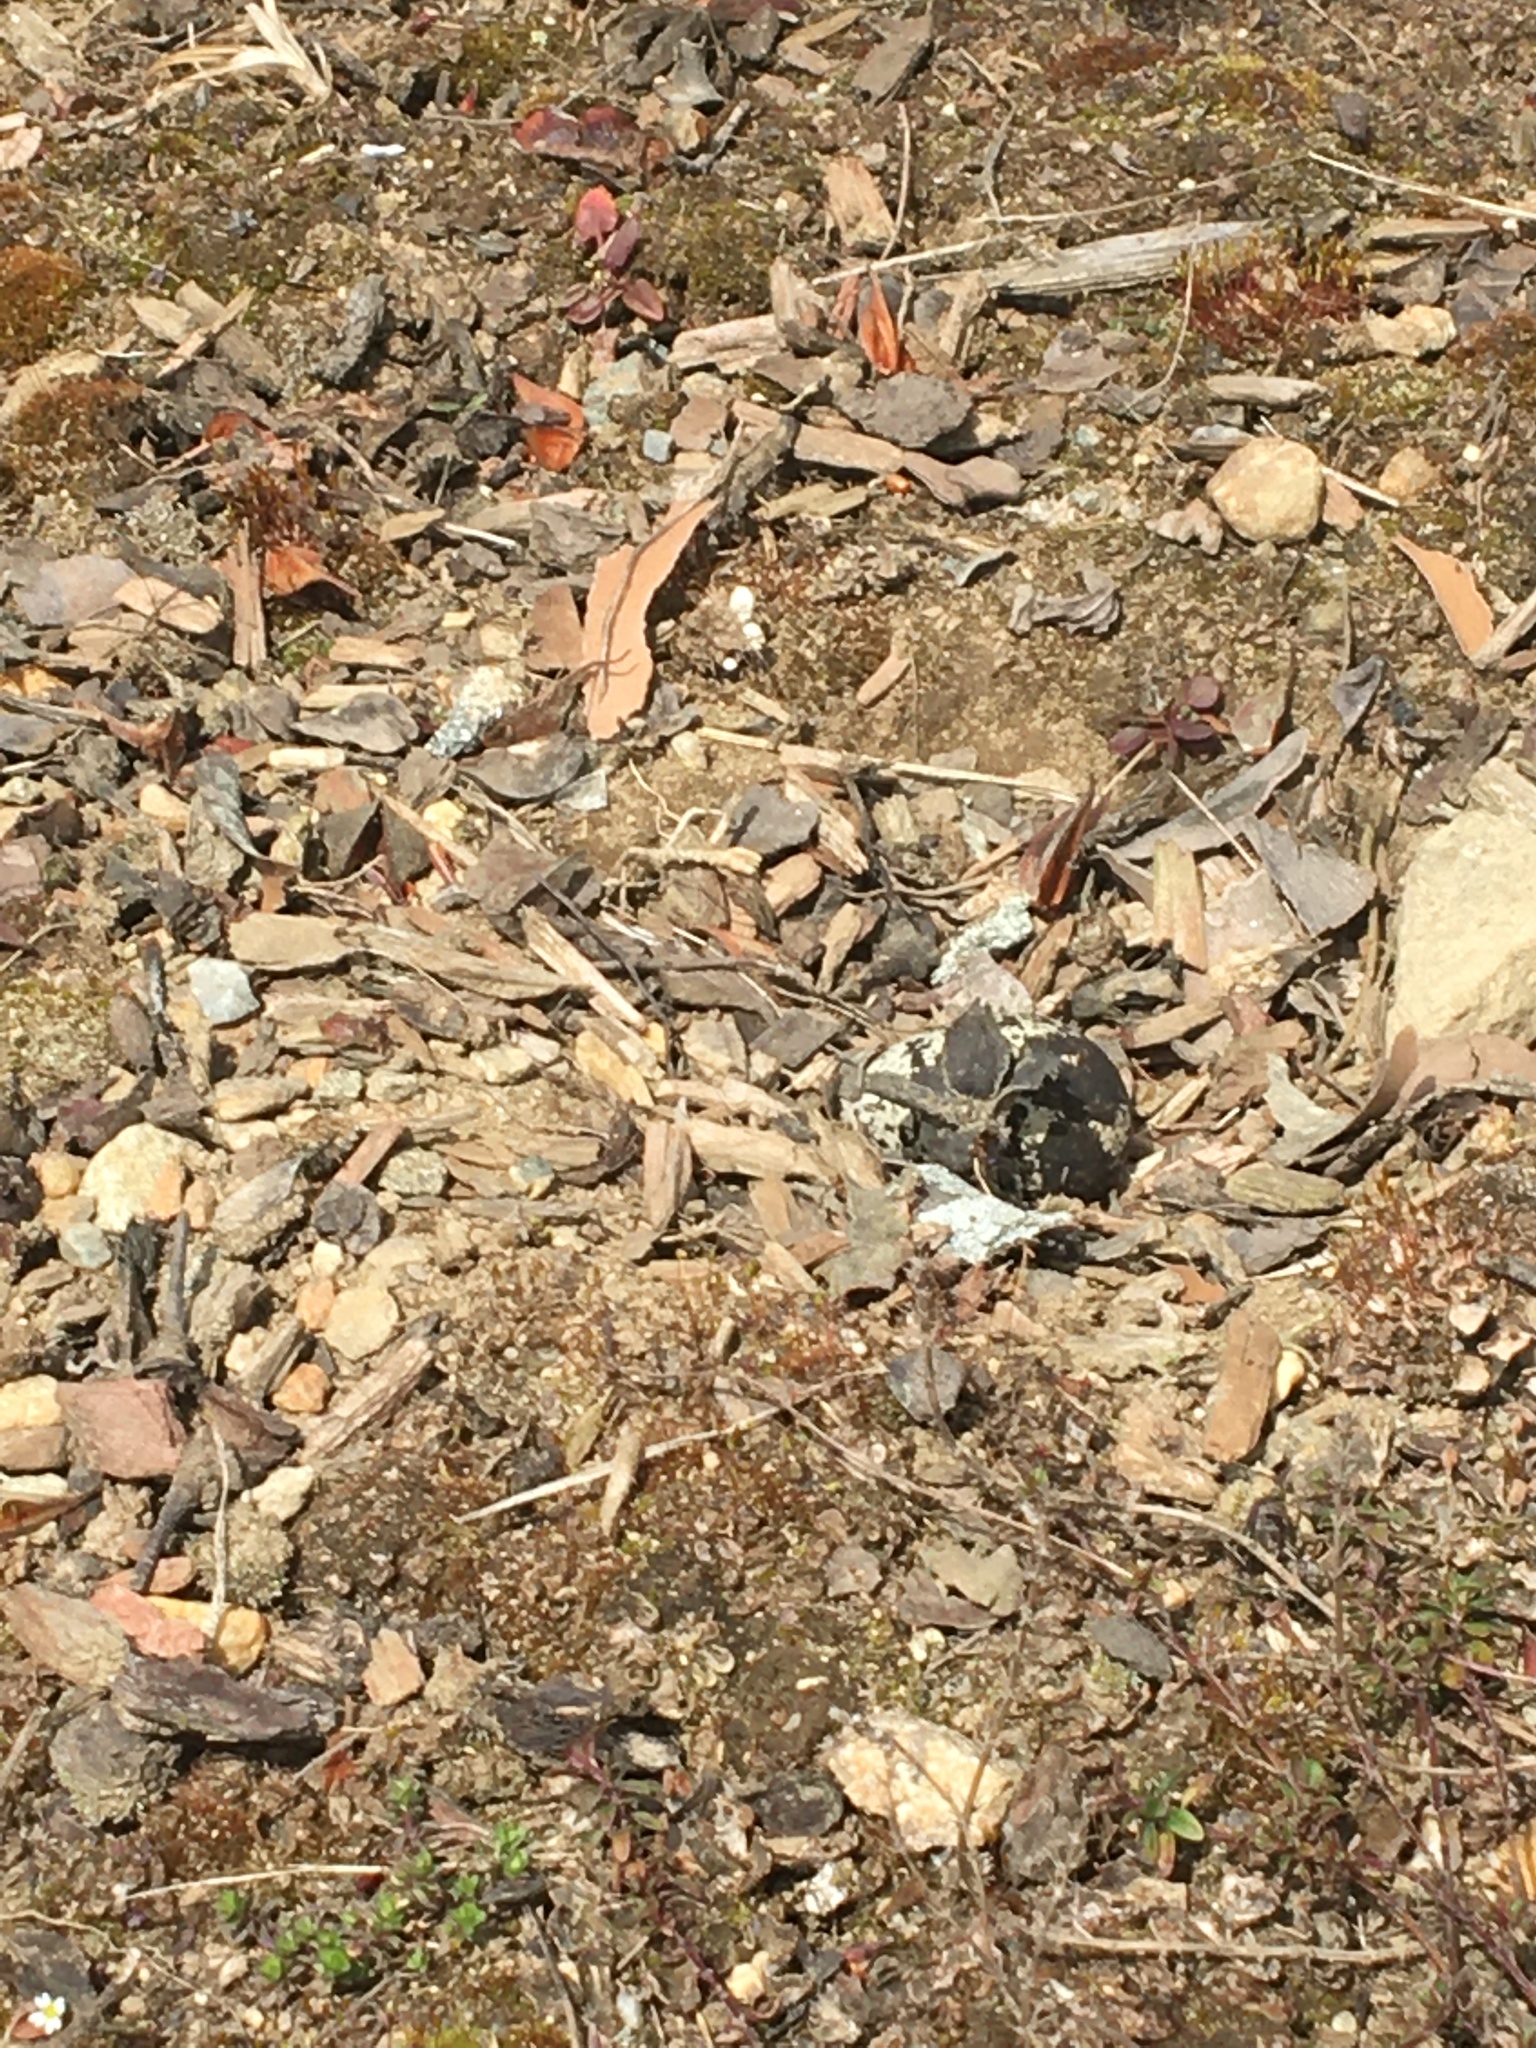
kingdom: Animalia
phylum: Chordata
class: Aves
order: Charadriiformes
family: Charadriidae
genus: Charadrius
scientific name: Charadrius vociferus
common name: Killdeer
